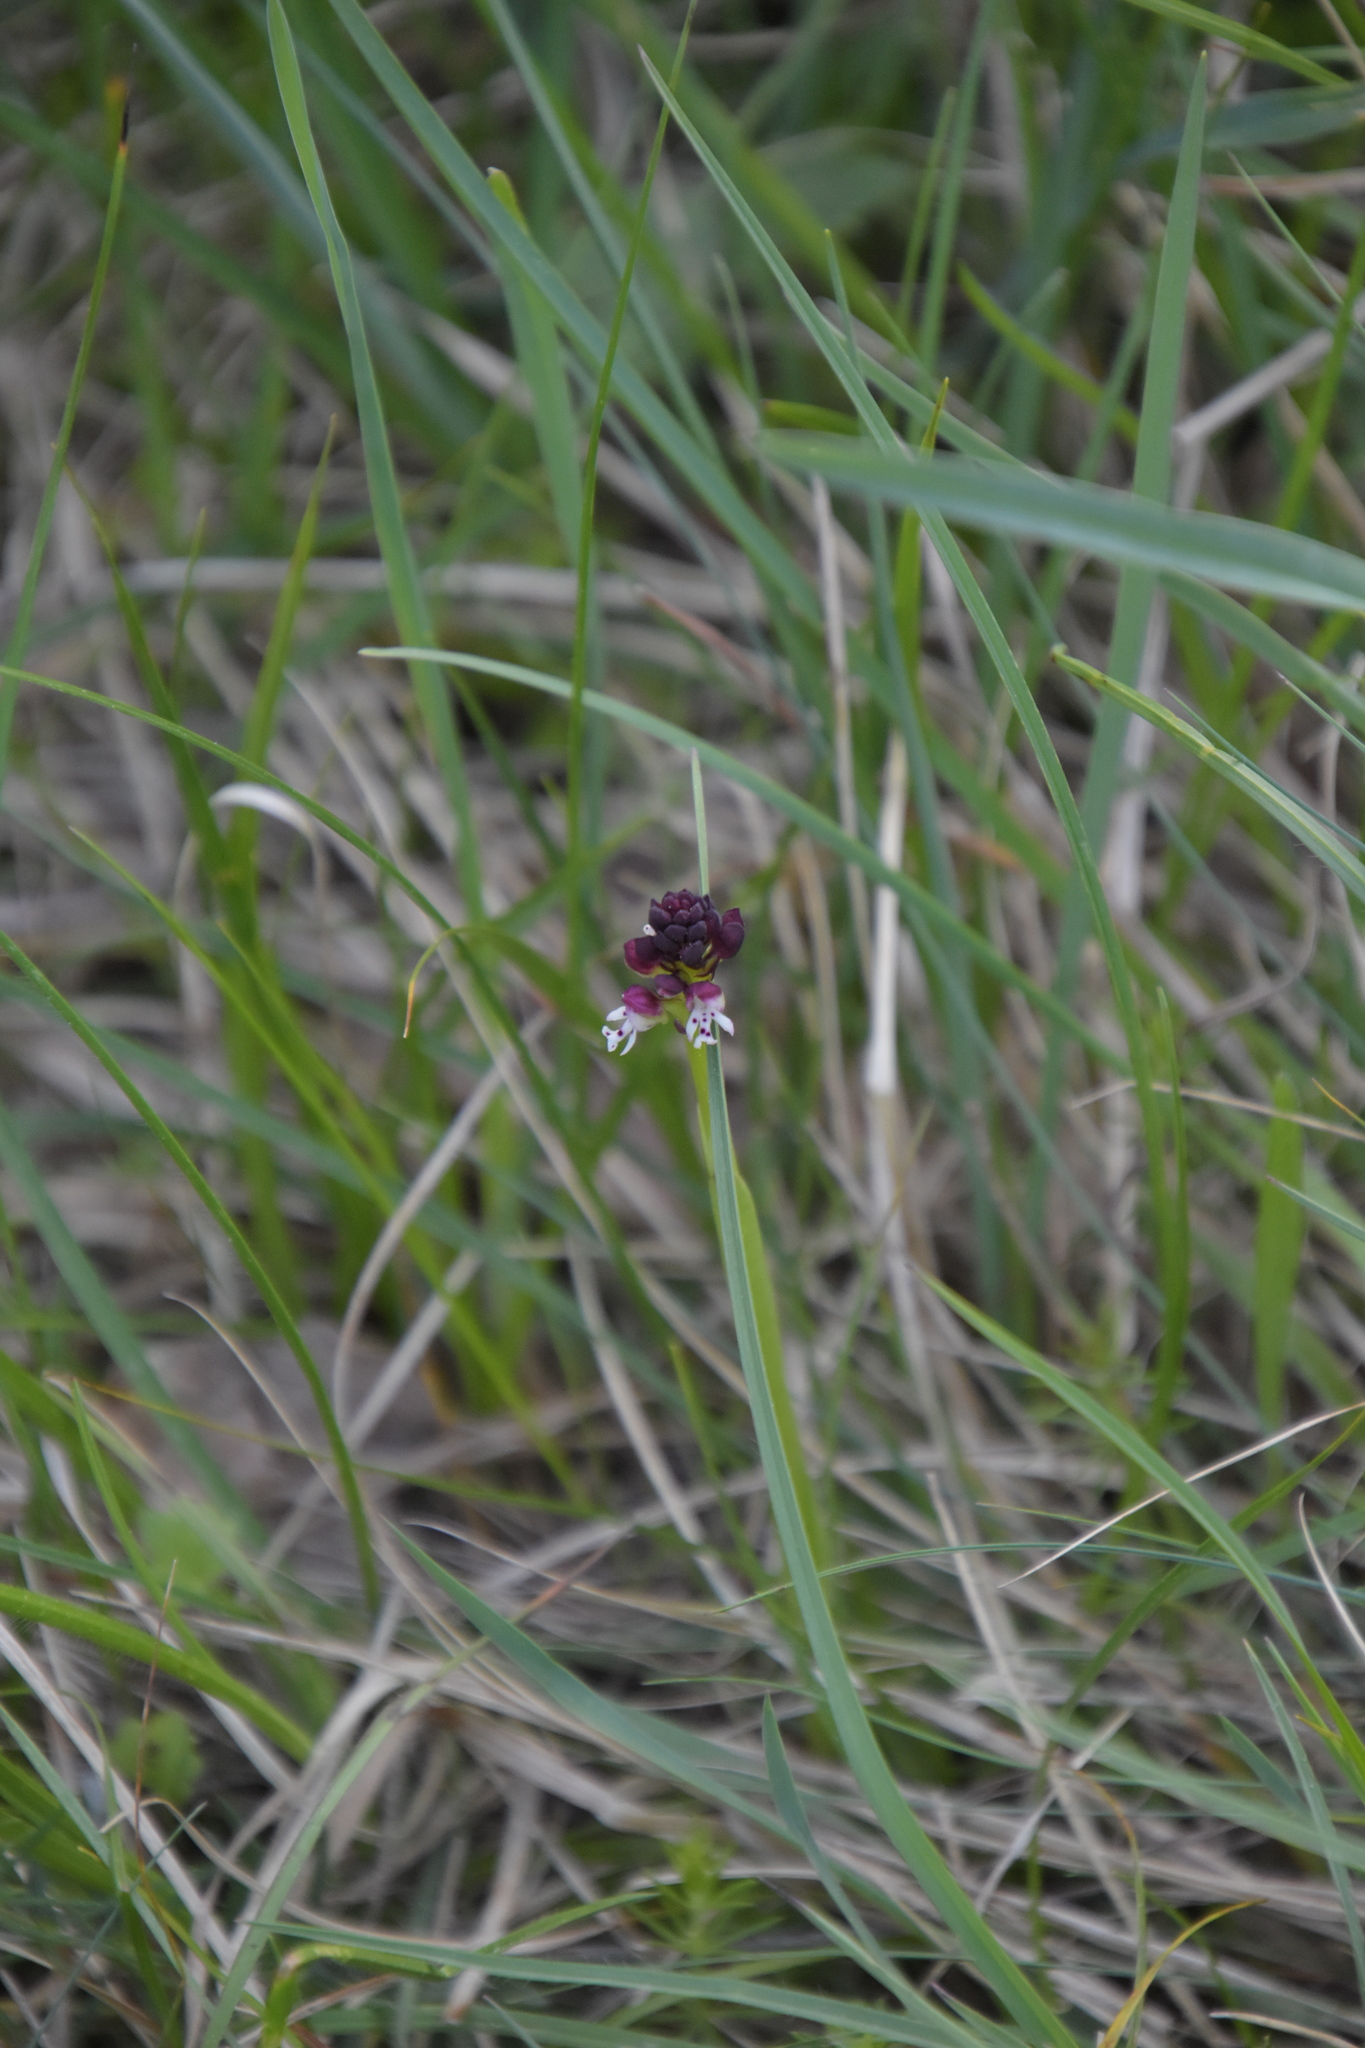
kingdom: Plantae
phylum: Tracheophyta
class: Liliopsida
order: Asparagales
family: Orchidaceae
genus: Neotinea
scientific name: Neotinea ustulata
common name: Burnt orchid
